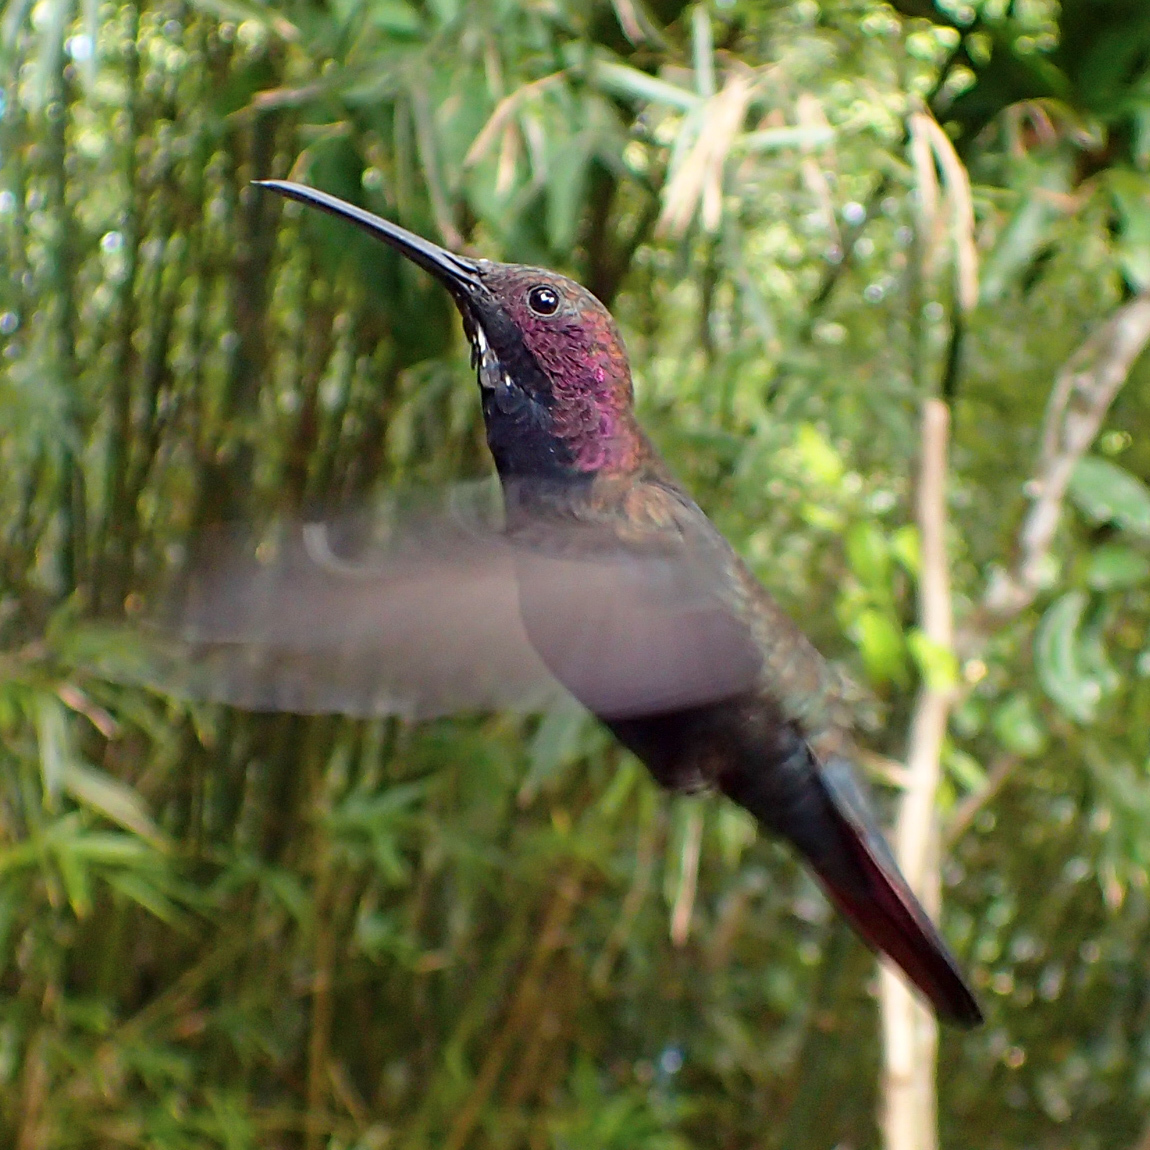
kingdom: Animalia
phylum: Chordata
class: Aves
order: Apodiformes
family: Trochilidae
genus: Anthracothorax
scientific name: Anthracothorax mango
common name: Jamaican mango
